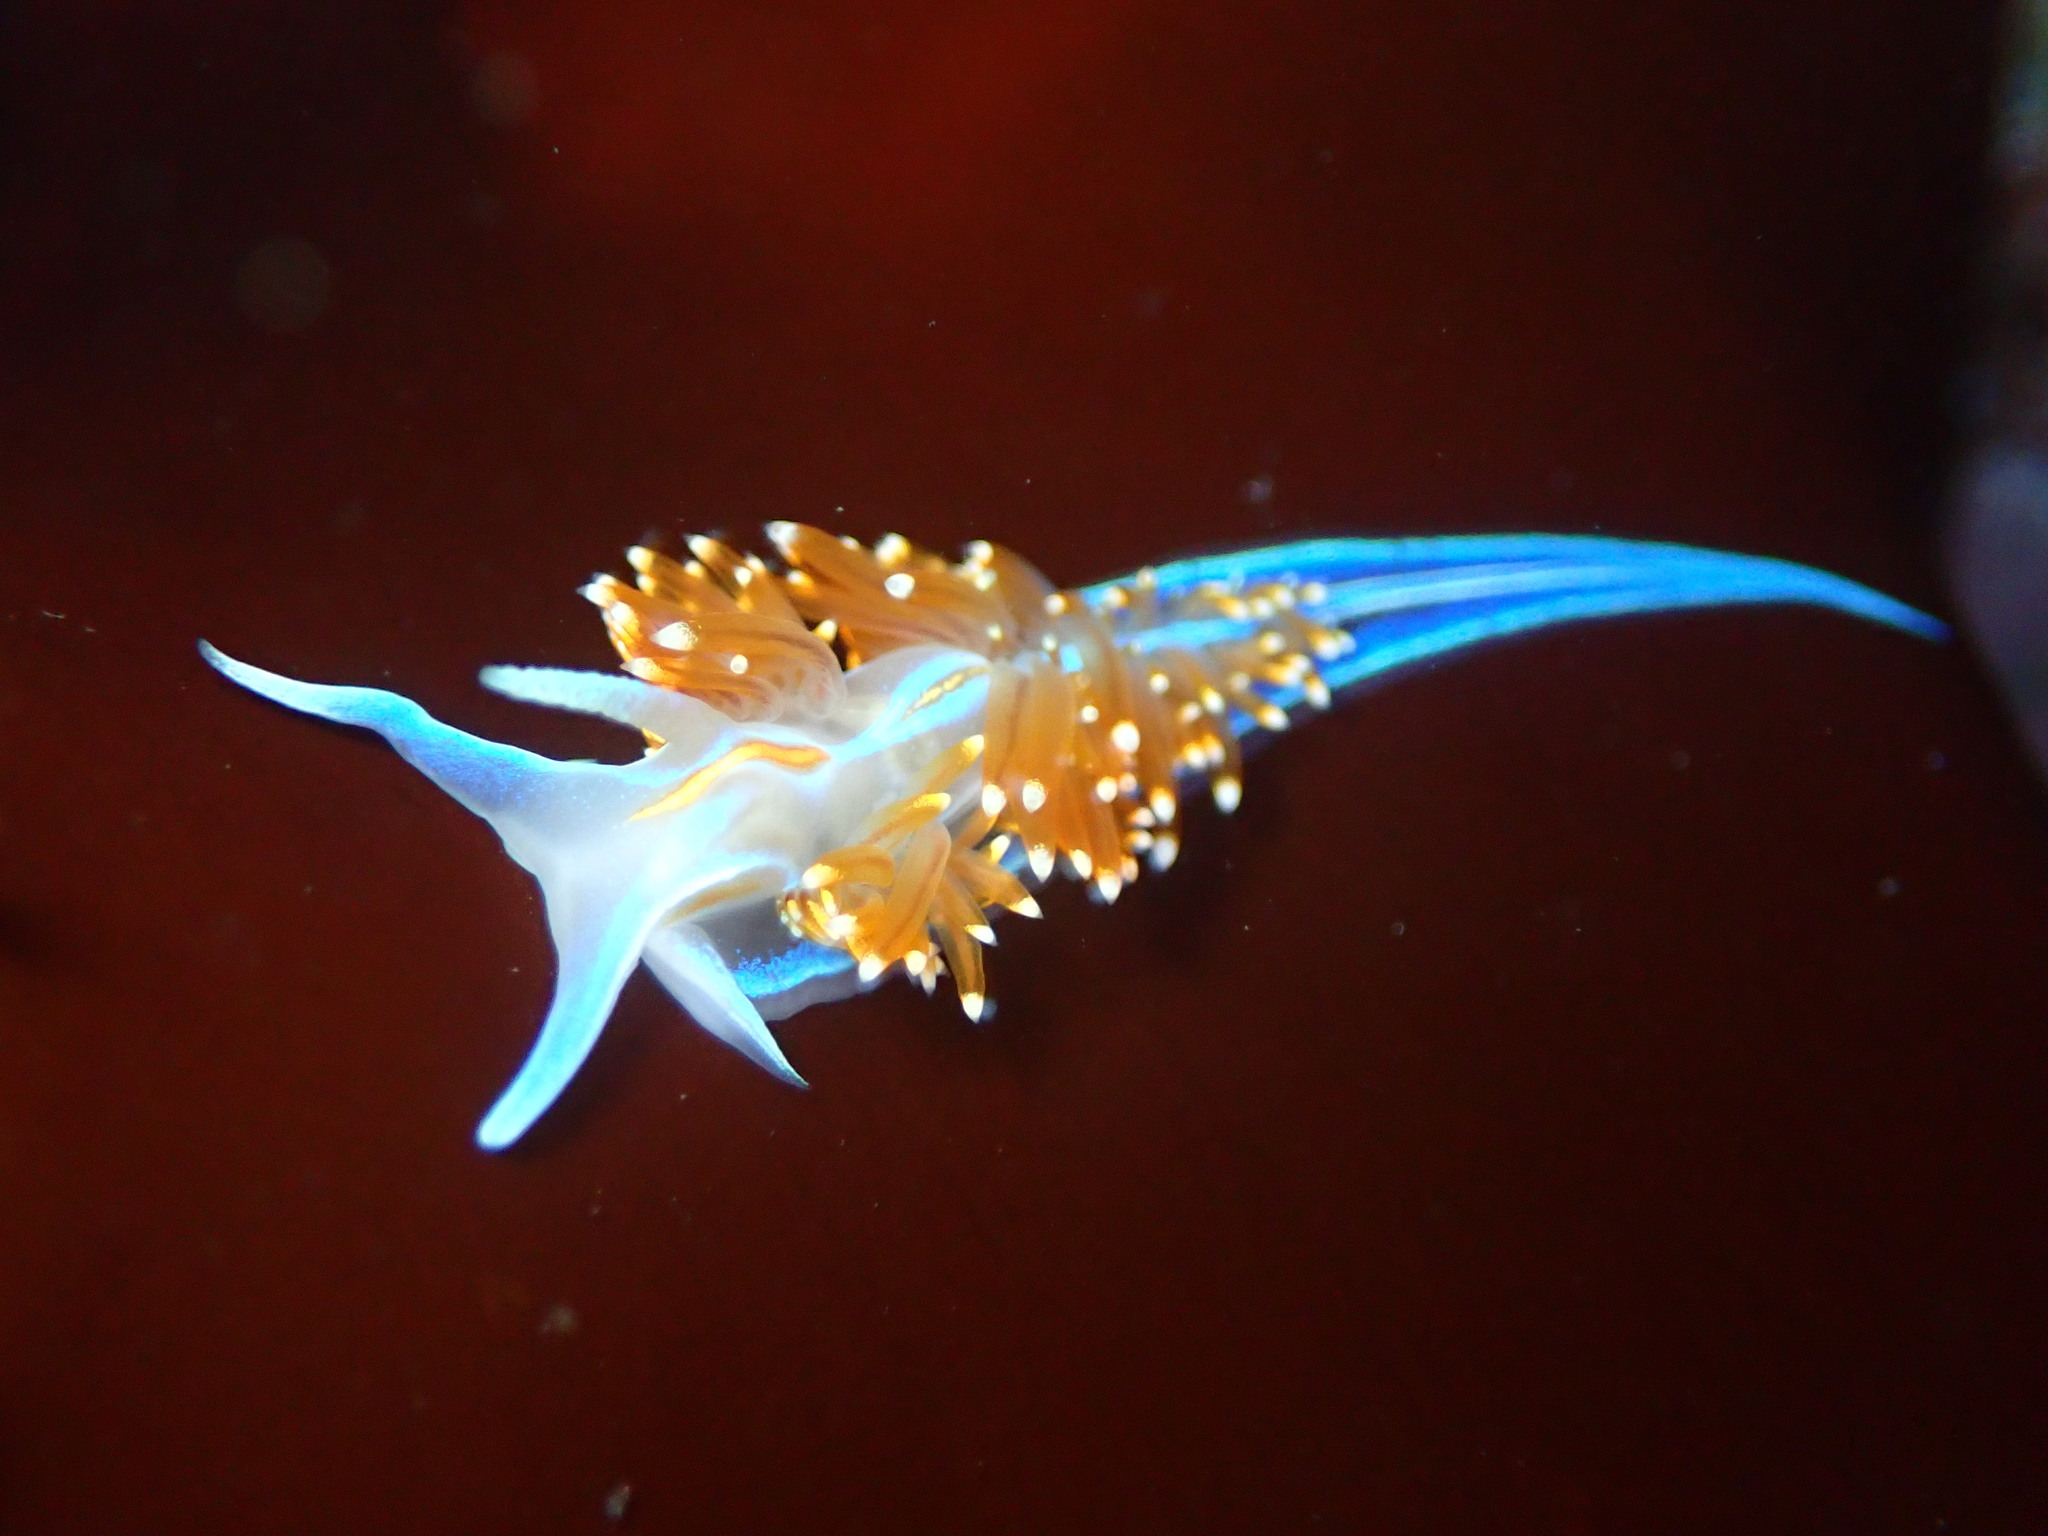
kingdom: Animalia
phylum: Mollusca
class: Gastropoda
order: Nudibranchia
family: Myrrhinidae
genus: Hermissenda
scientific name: Hermissenda opalescens
